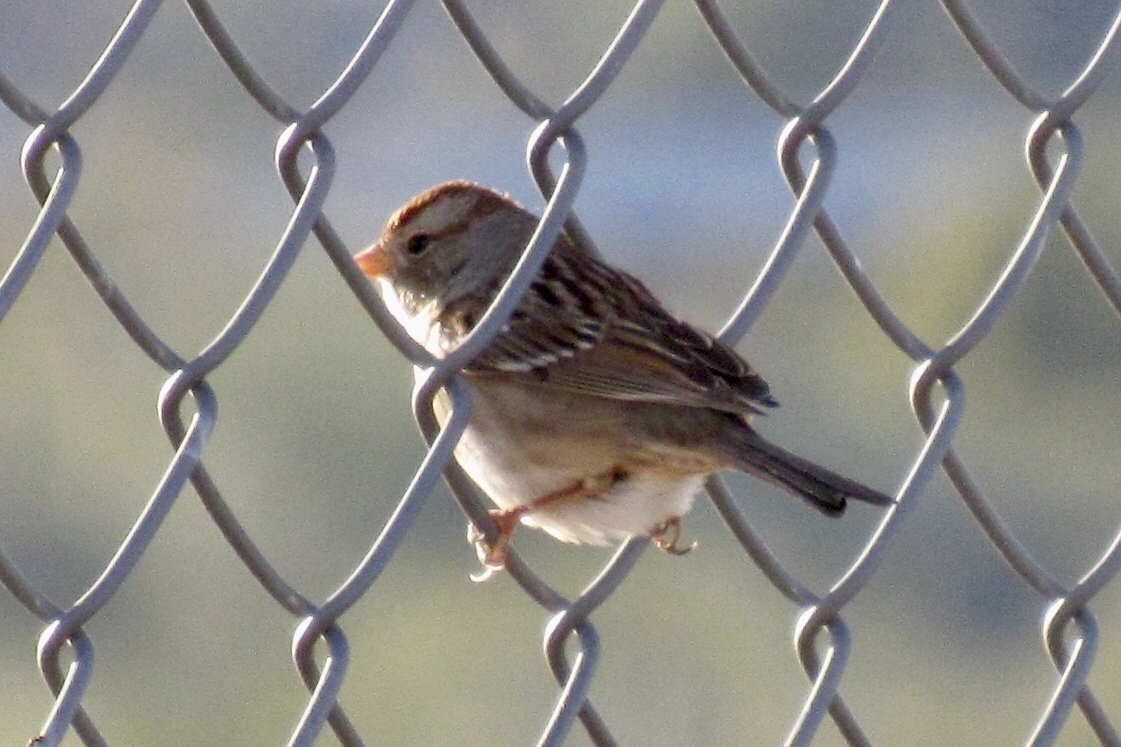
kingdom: Animalia
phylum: Chordata
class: Aves
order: Passeriformes
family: Passerellidae
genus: Zonotrichia
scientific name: Zonotrichia leucophrys
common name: White-crowned sparrow
